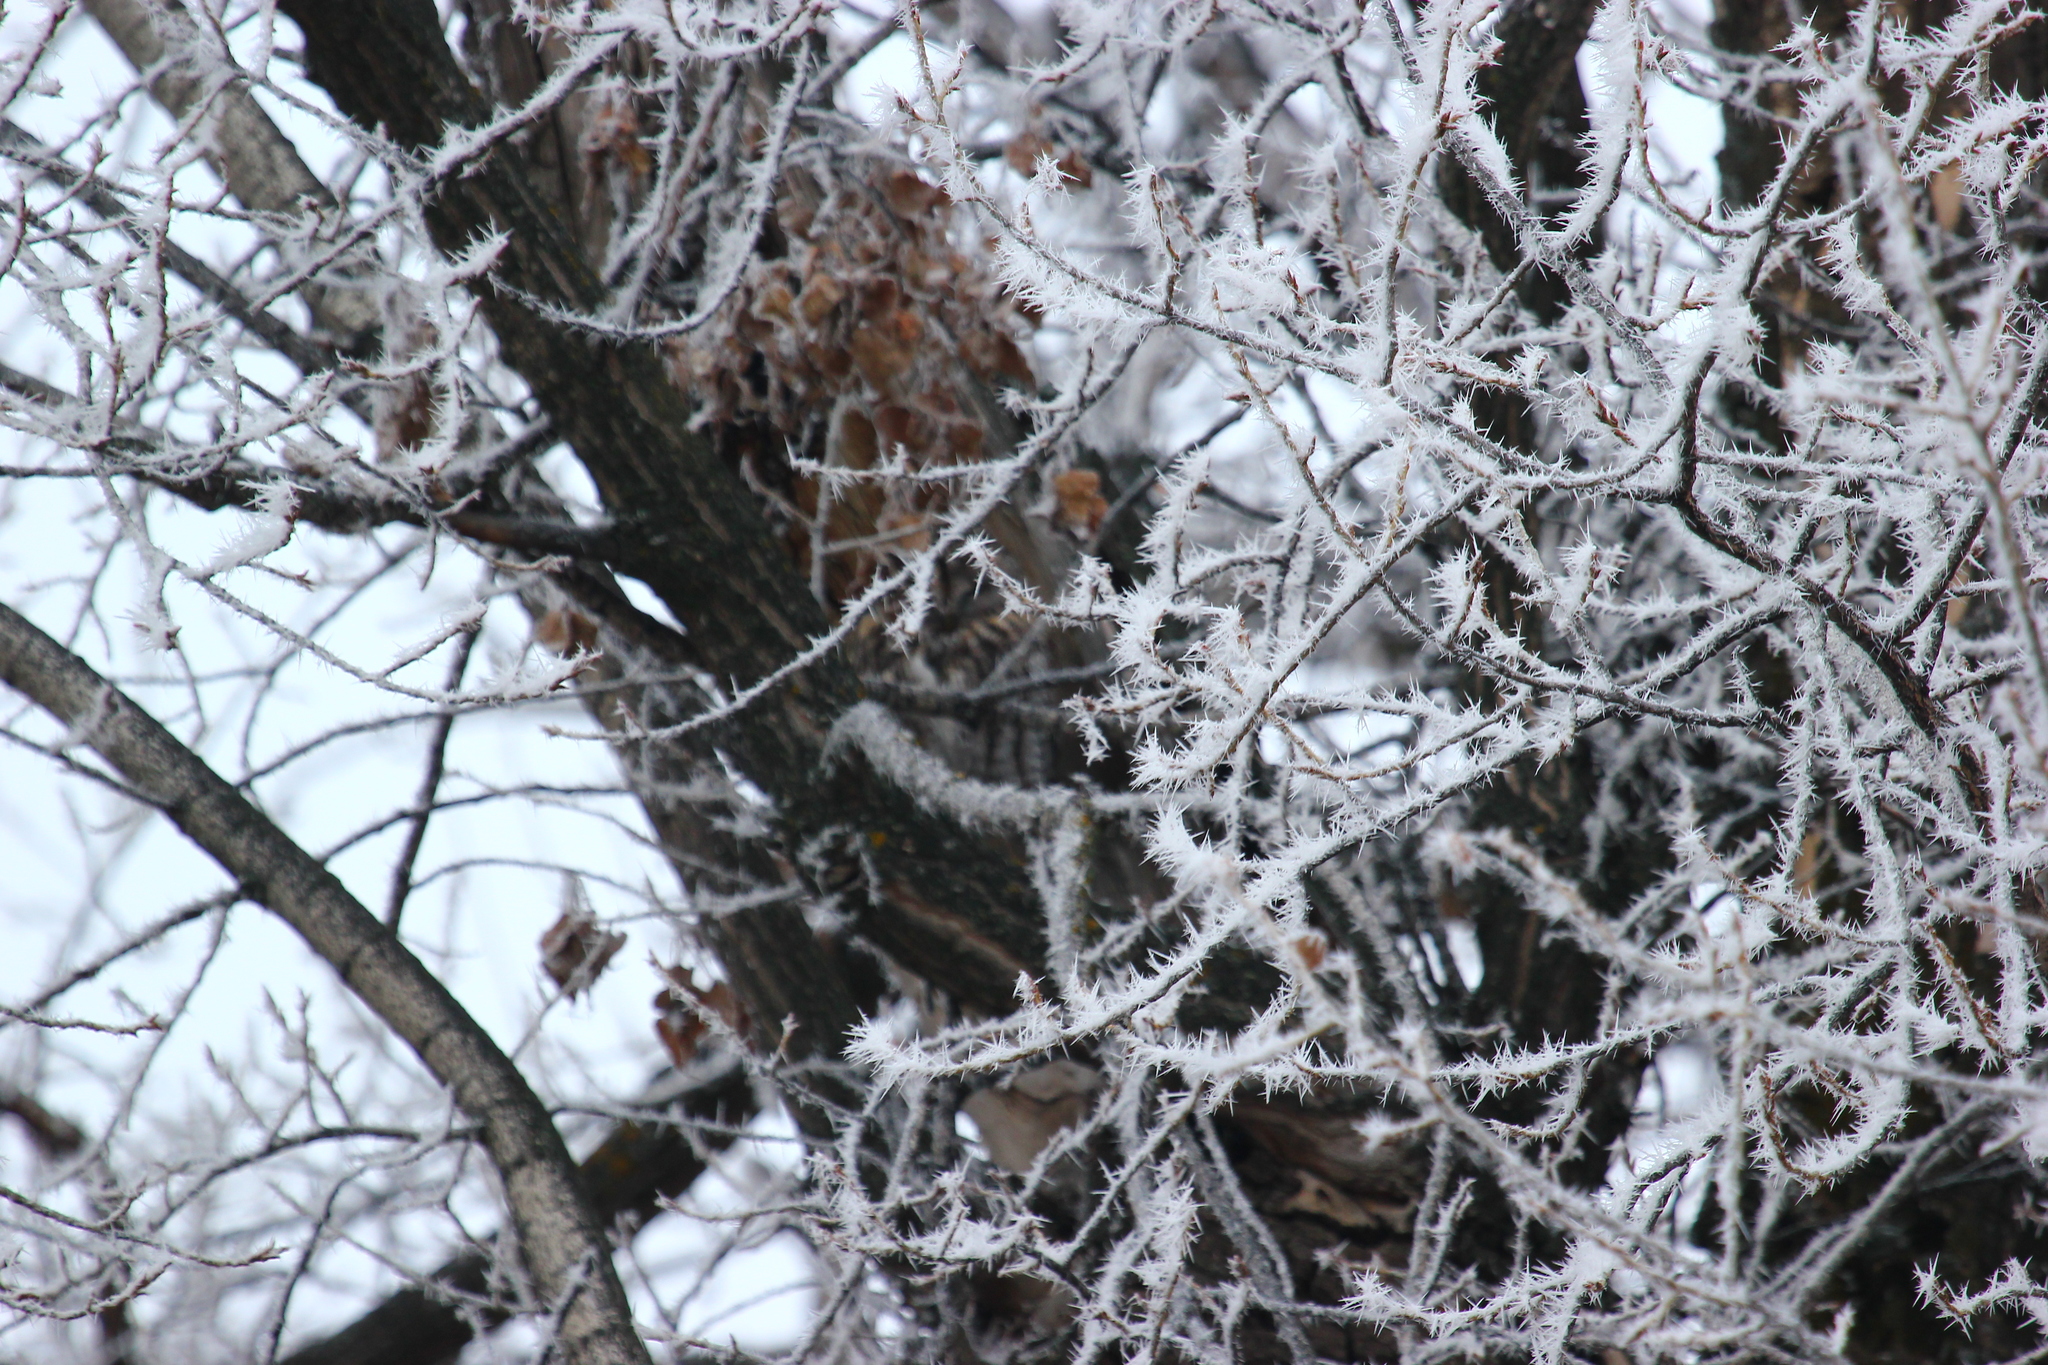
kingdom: Animalia
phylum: Chordata
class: Aves
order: Strigiformes
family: Strigidae
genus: Strix
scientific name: Strix aluco
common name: Tawny owl
